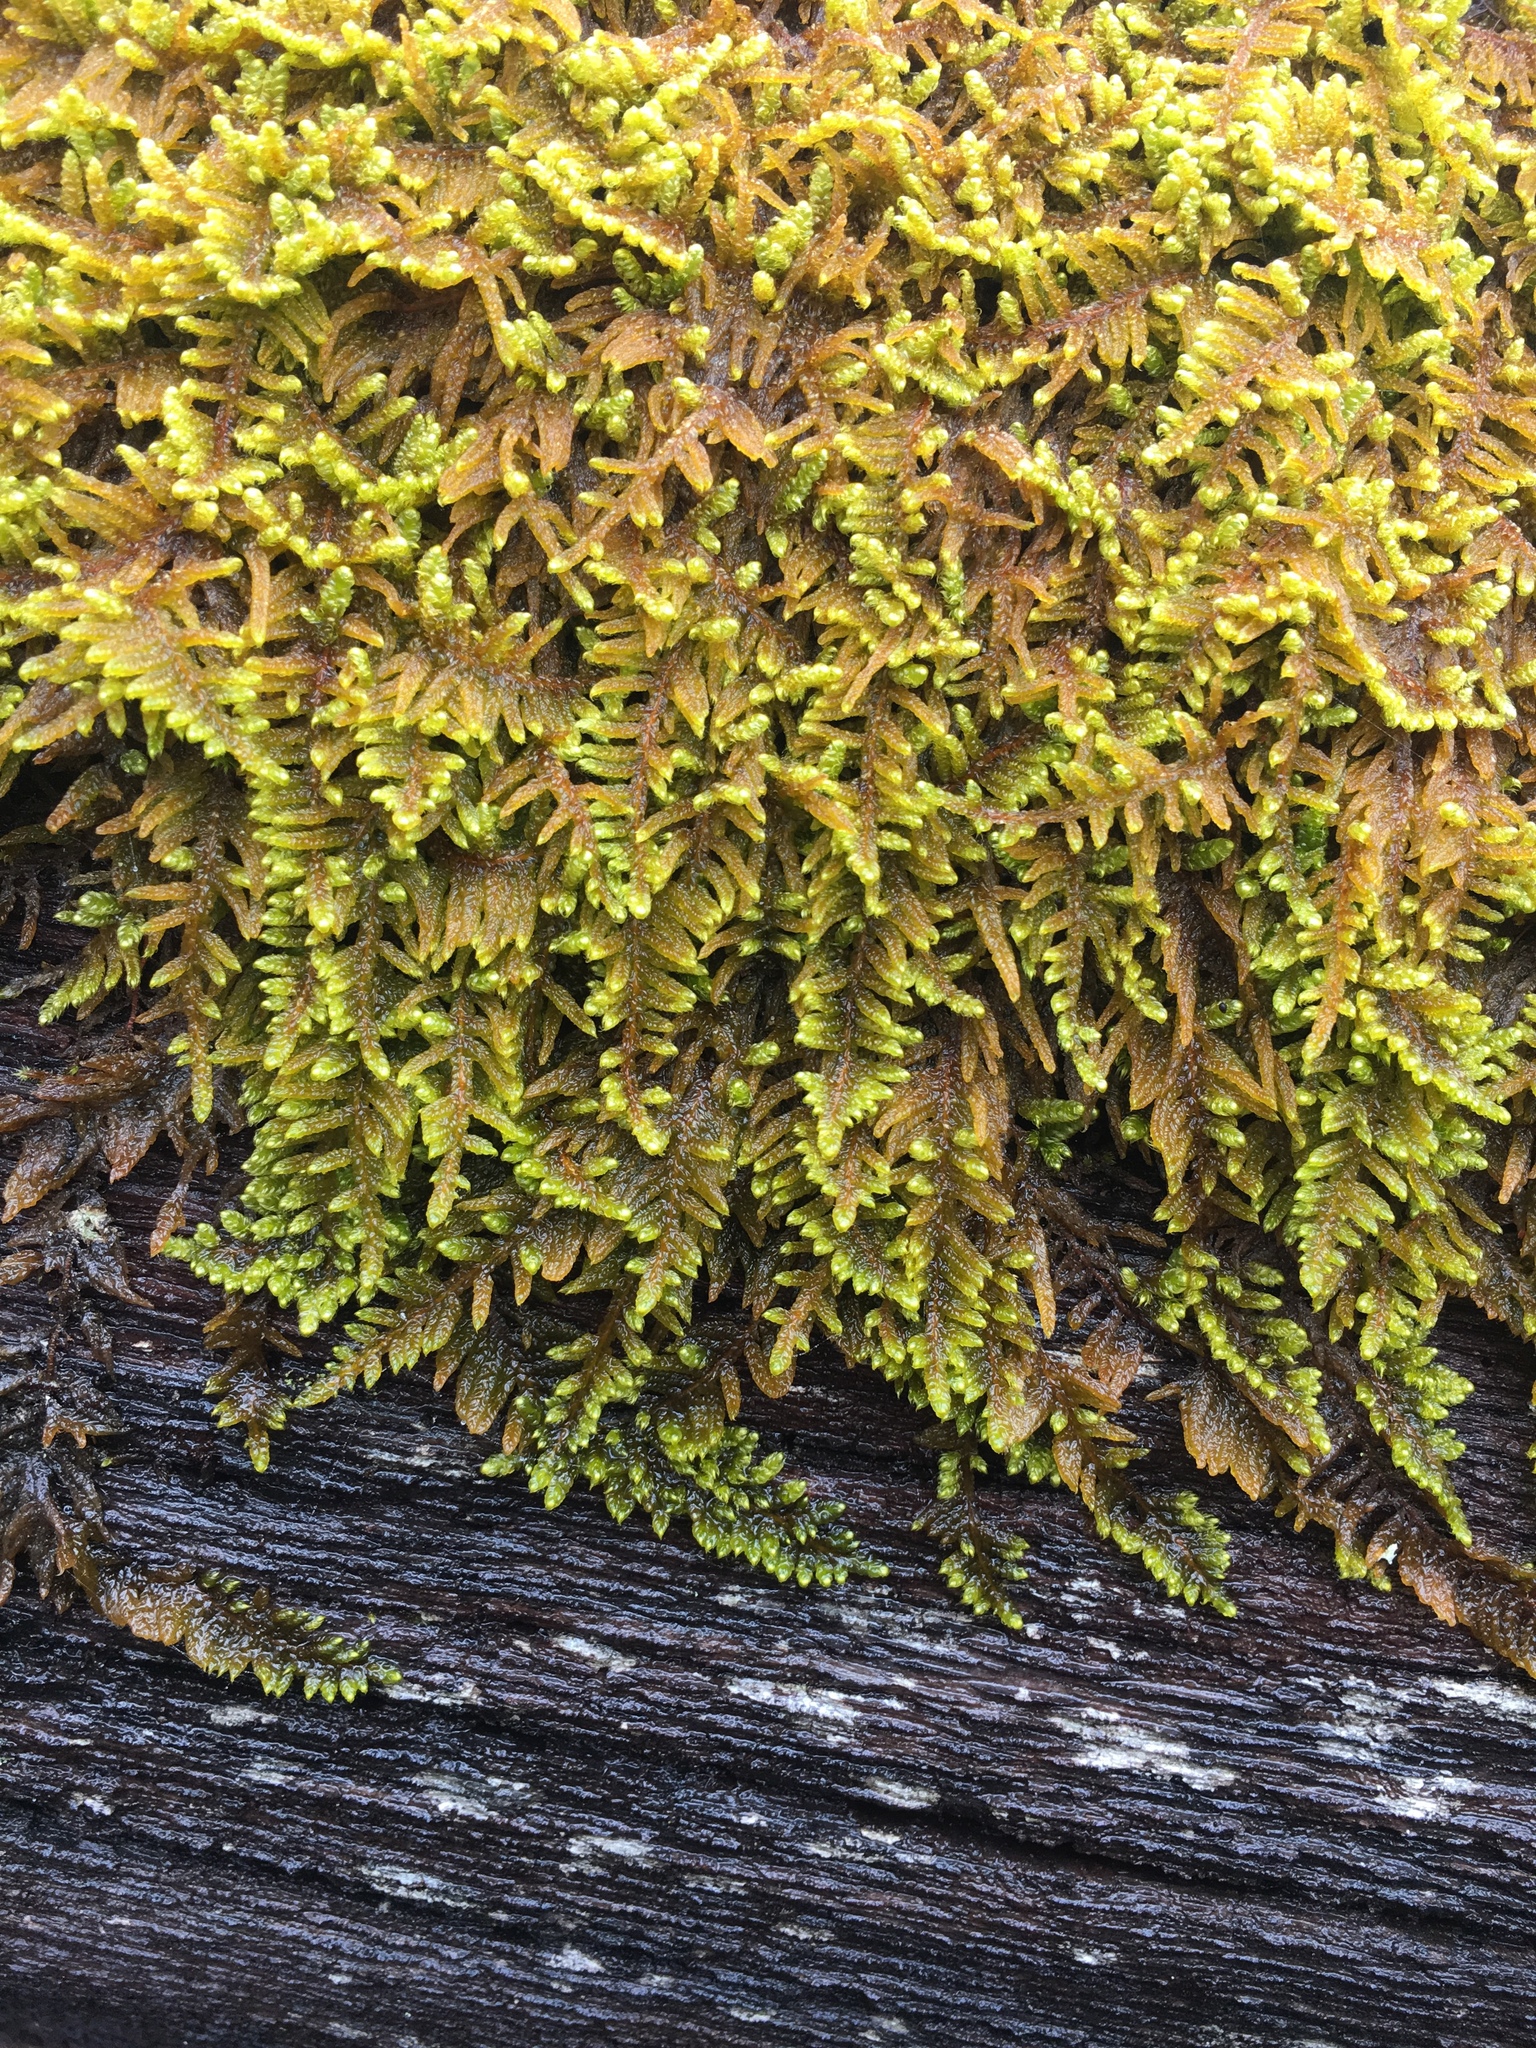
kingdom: Plantae
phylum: Bryophyta
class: Bryopsida
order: Hypnales
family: Callicladiaceae
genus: Callicladium
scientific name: Callicladium imponens
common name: Brocade moss
